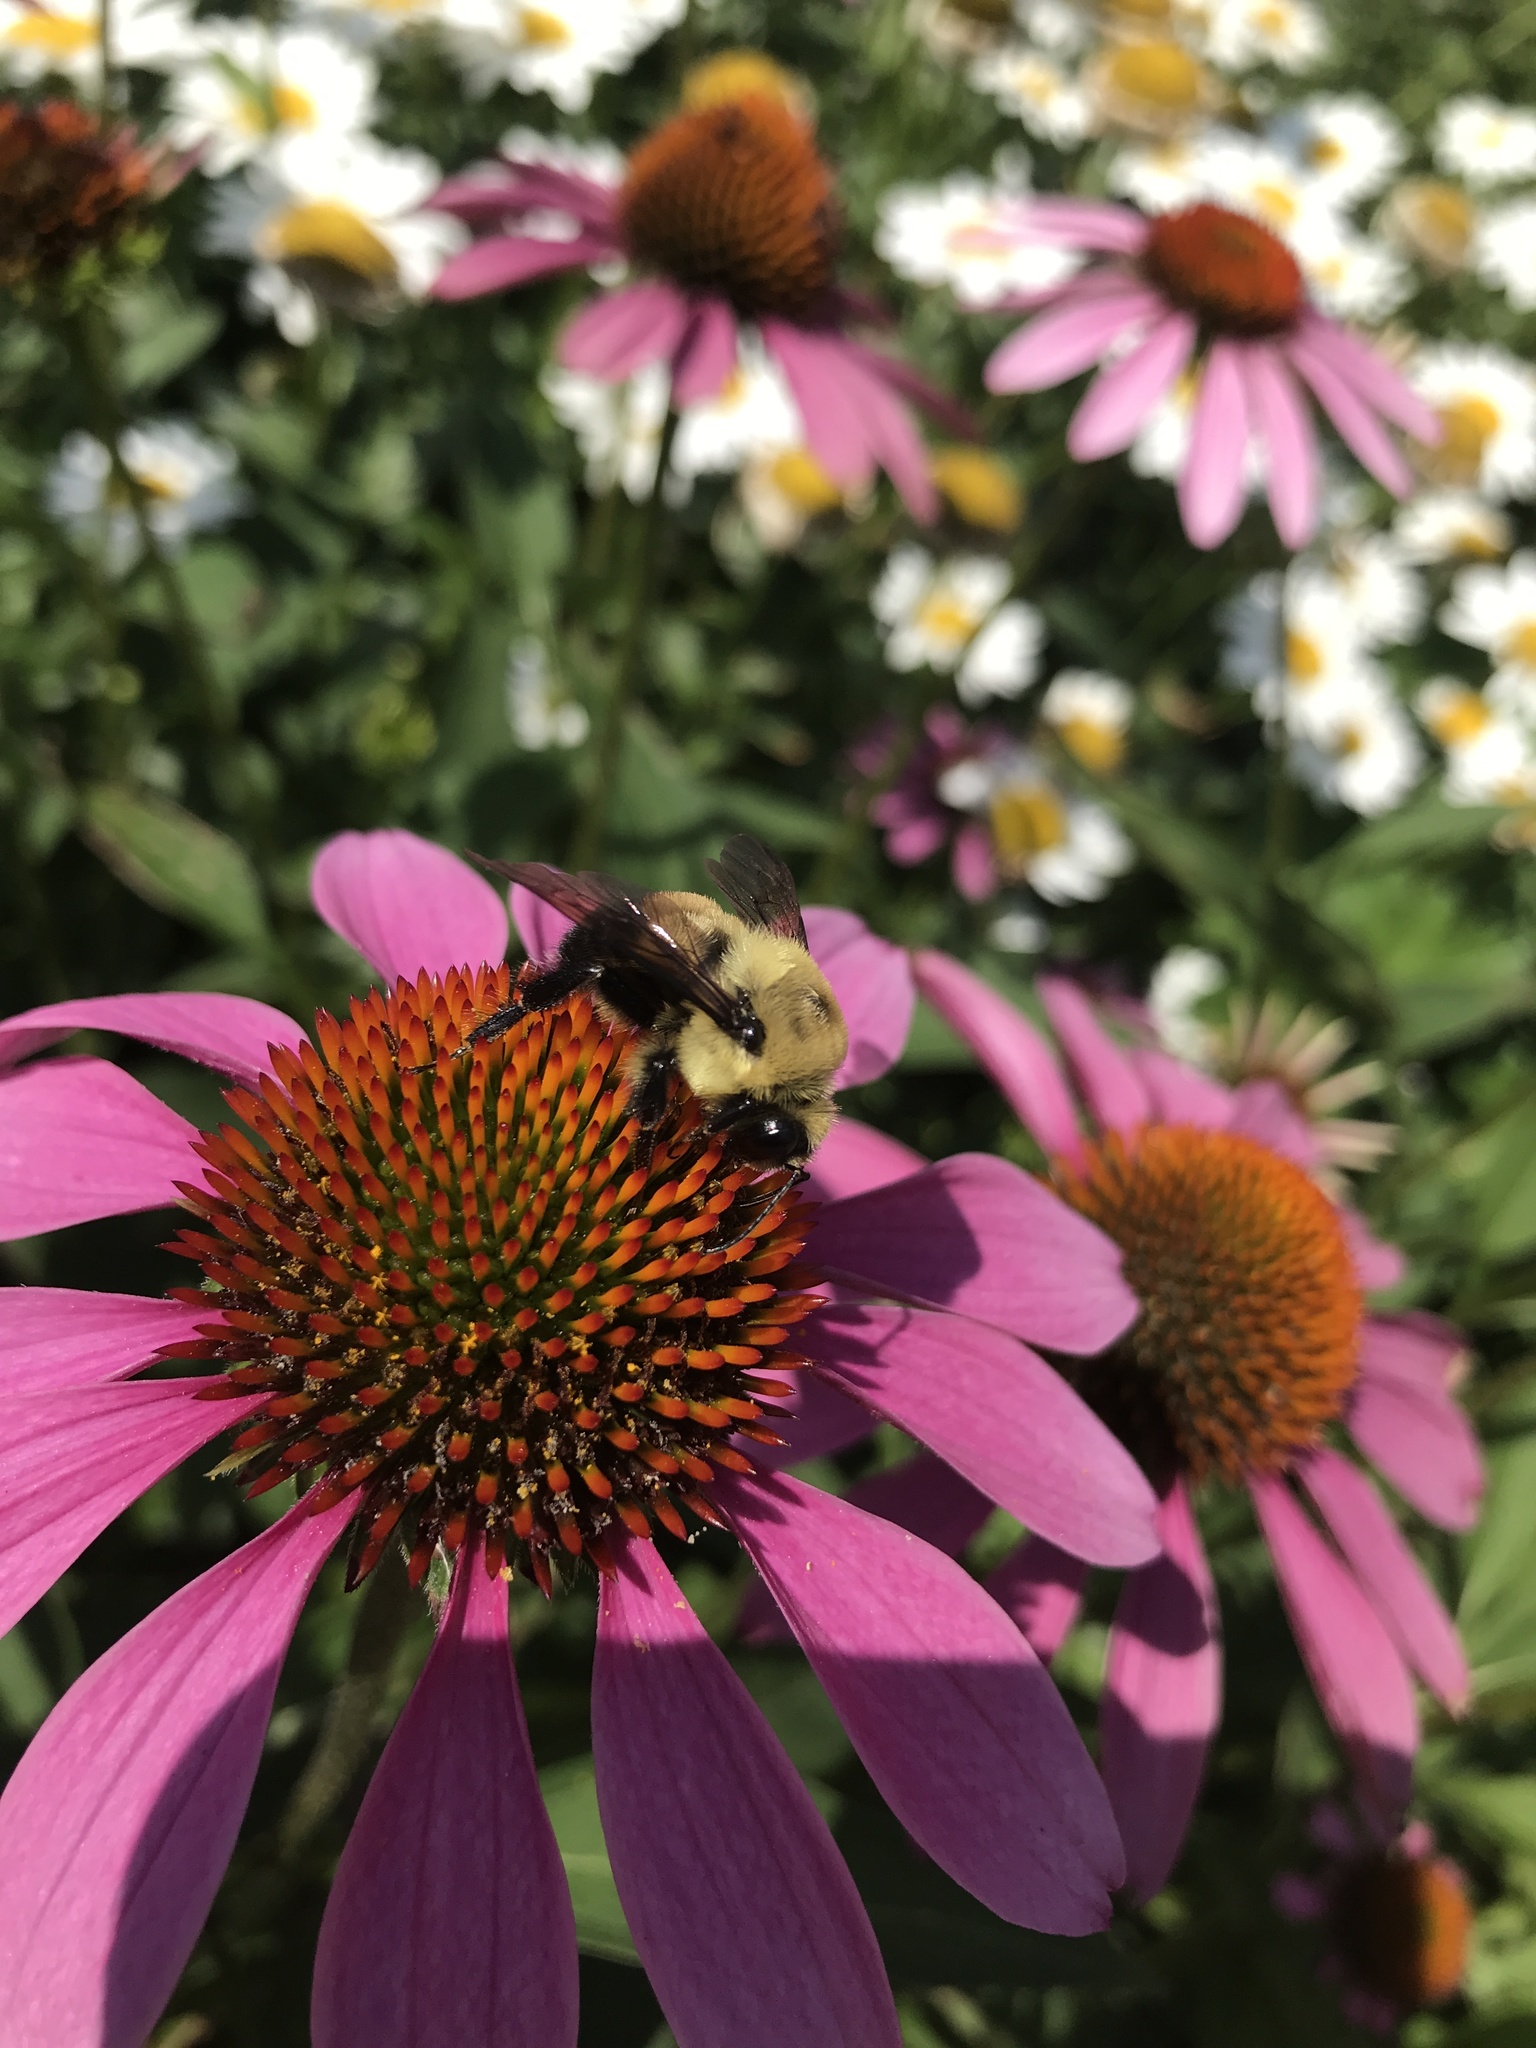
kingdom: Animalia
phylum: Arthropoda
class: Insecta
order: Hymenoptera
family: Apidae
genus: Bombus
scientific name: Bombus griseocollis
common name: Brown-belted bumble bee
